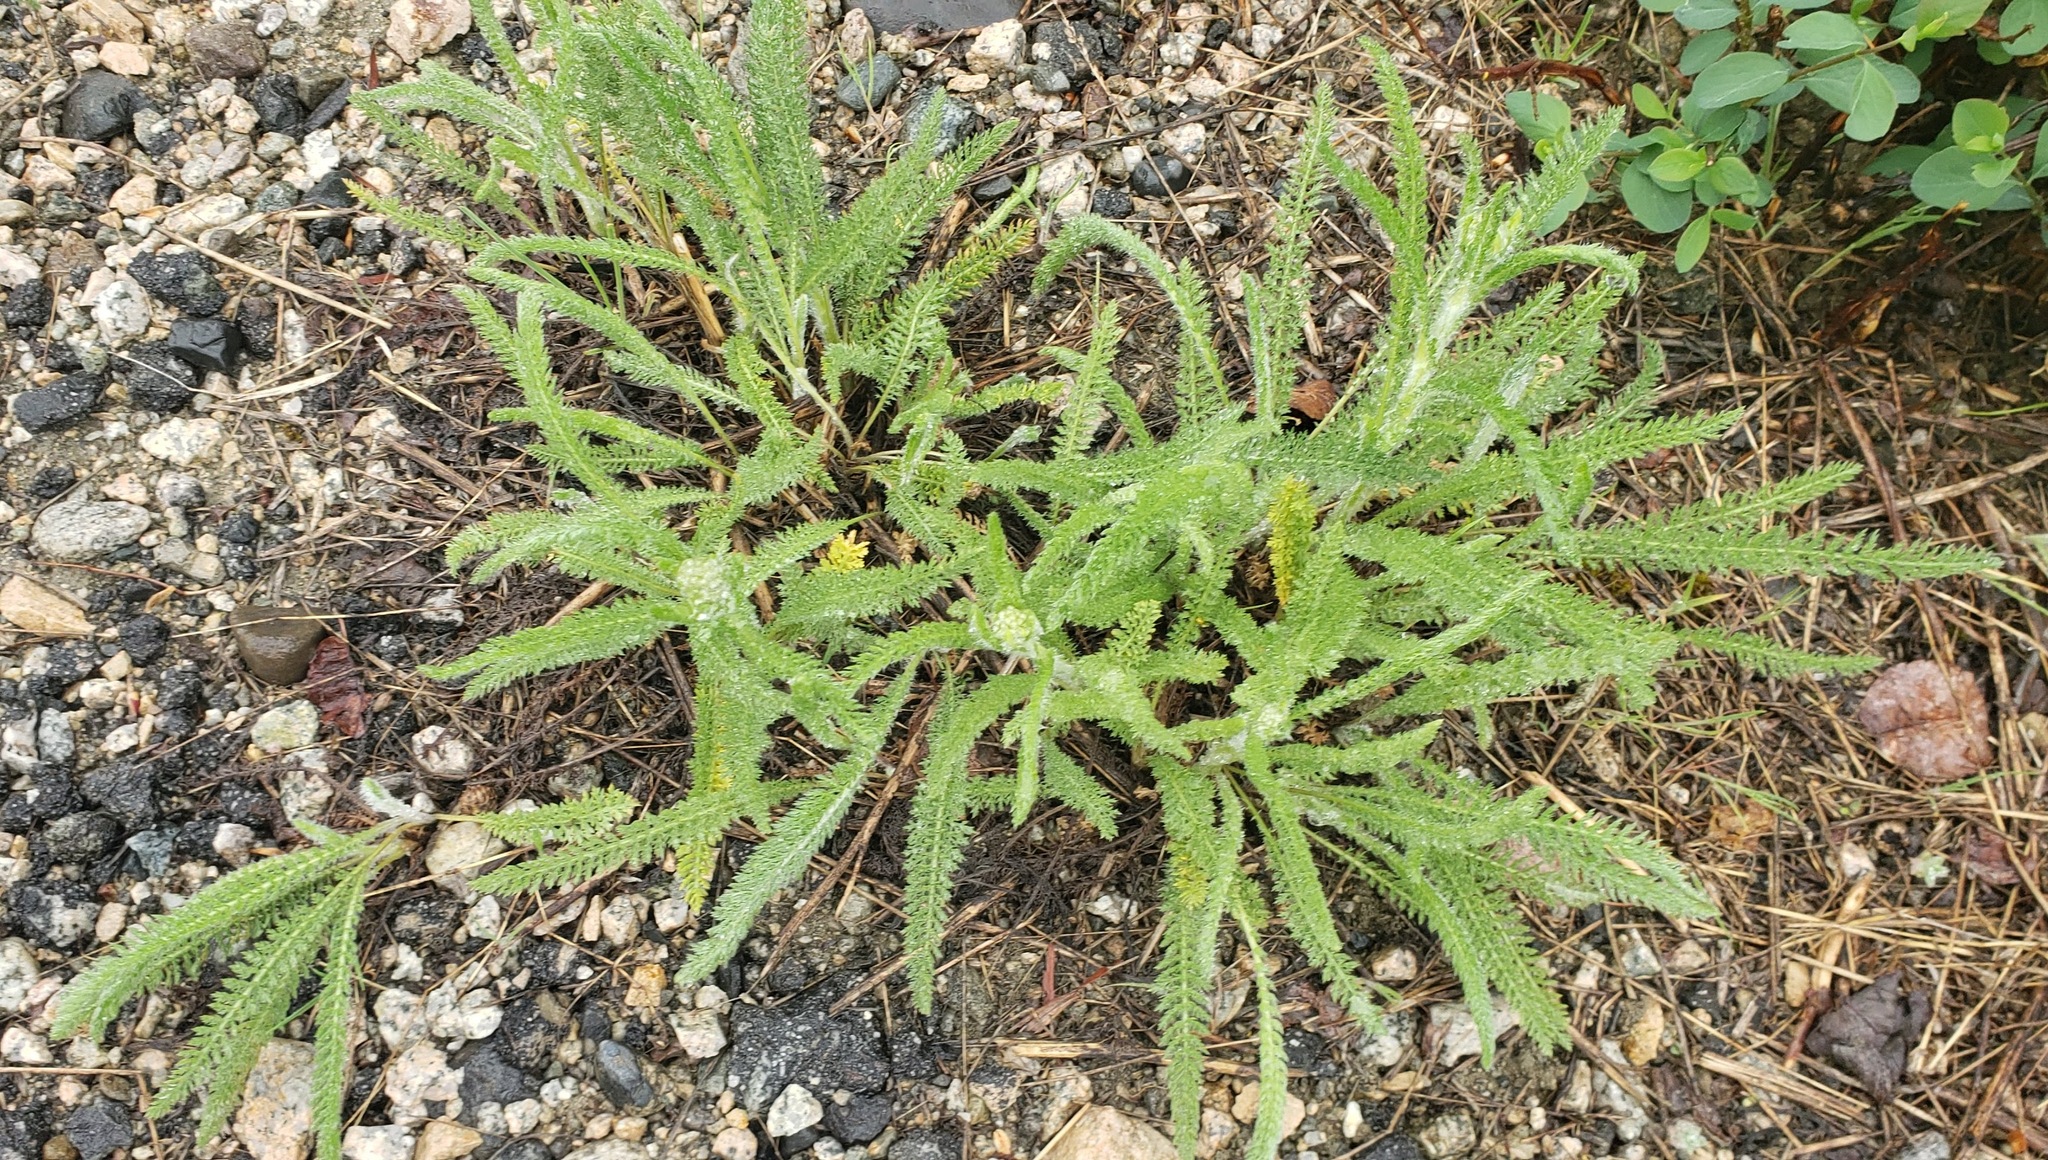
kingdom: Plantae
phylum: Tracheophyta
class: Magnoliopsida
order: Asterales
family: Asteraceae
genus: Achillea
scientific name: Achillea millefolium
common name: Yarrow
